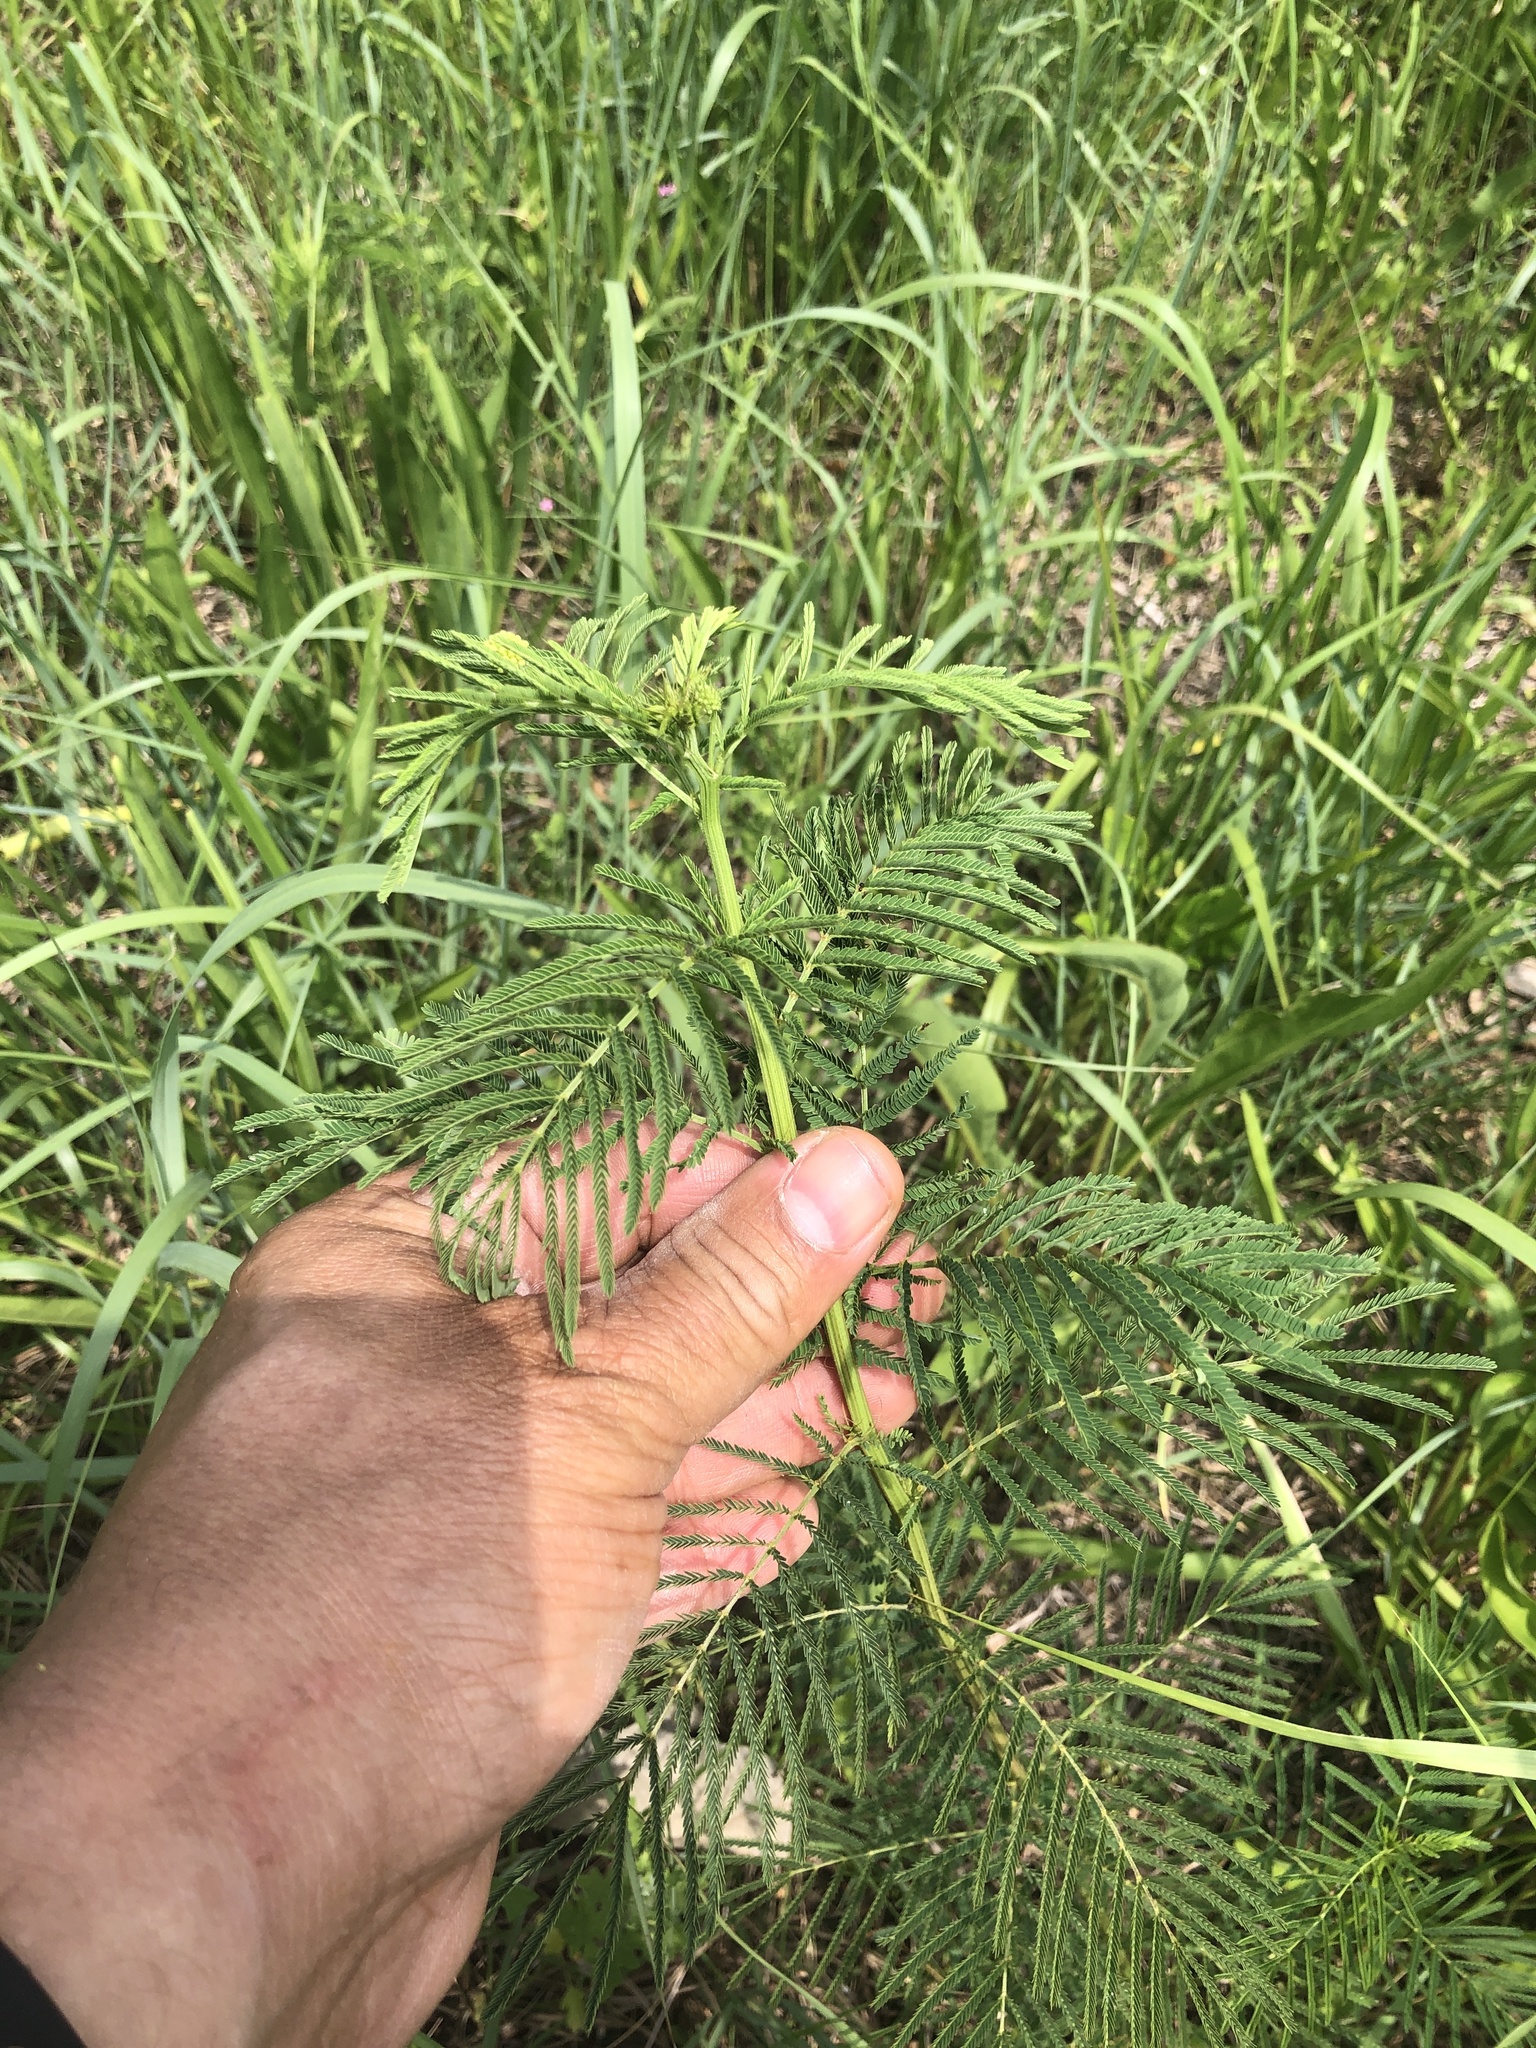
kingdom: Plantae
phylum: Tracheophyta
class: Magnoliopsida
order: Fabales
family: Fabaceae
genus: Desmanthus
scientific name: Desmanthus illinoensis
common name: Illinois bundle-flower
